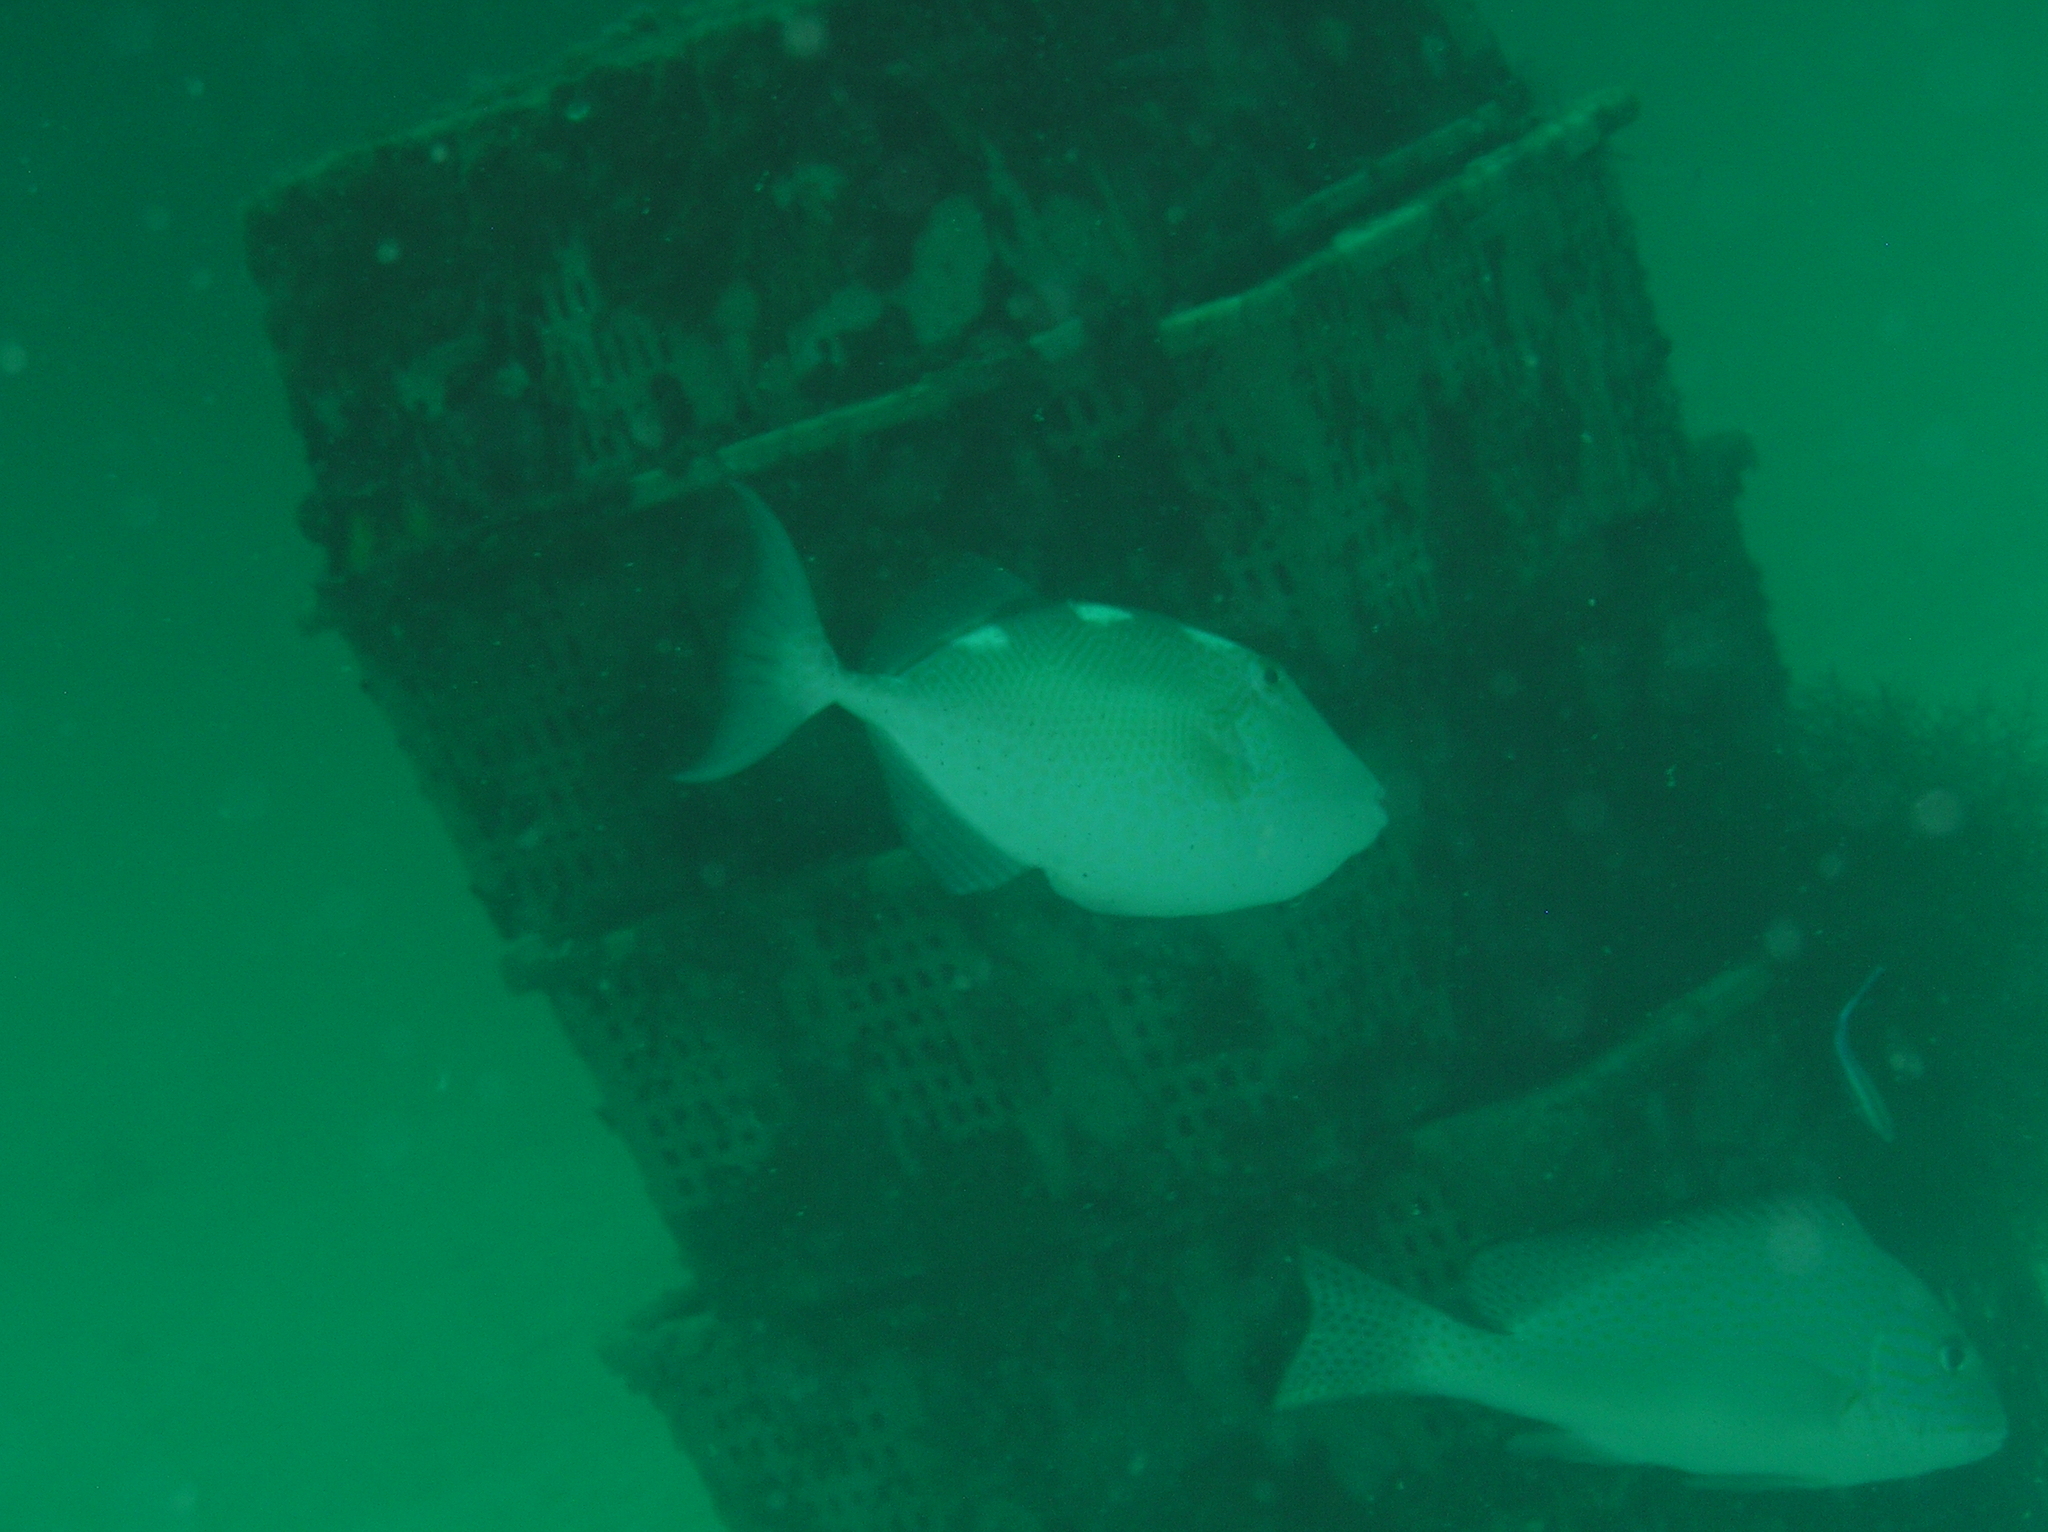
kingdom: Animalia
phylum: Chordata
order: Tetraodontiformes
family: Balistidae
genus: Abalistes
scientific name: Abalistes stellatus
